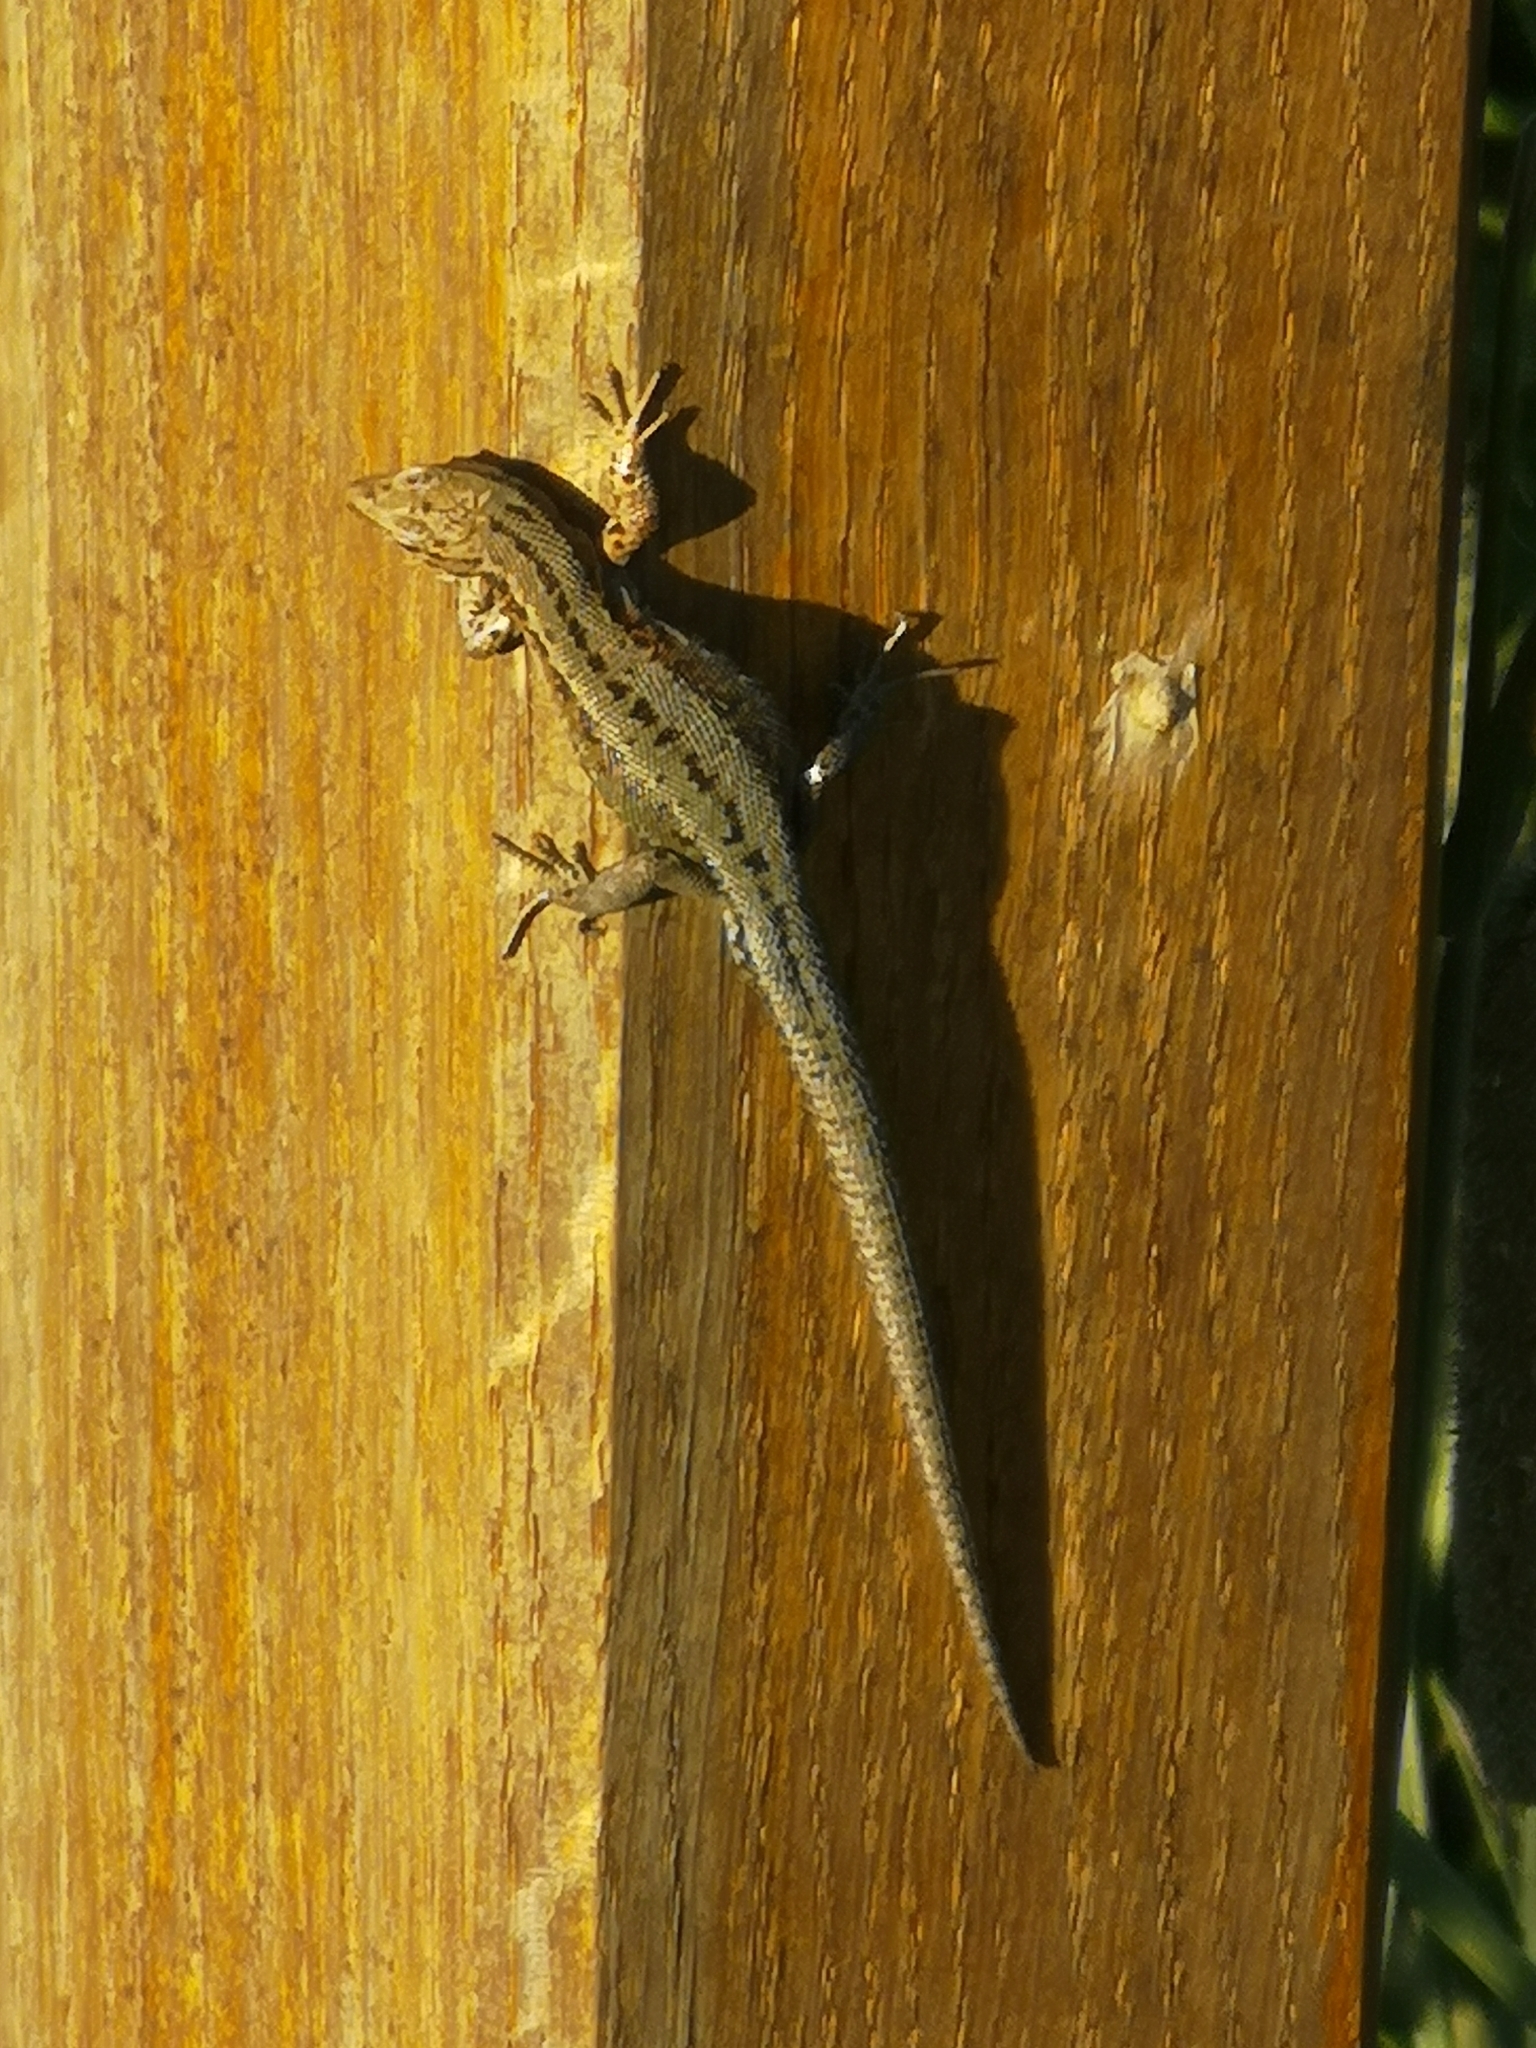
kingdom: Animalia
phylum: Chordata
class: Squamata
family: Lacertidae
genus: Zootoca
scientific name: Zootoca vivipara
